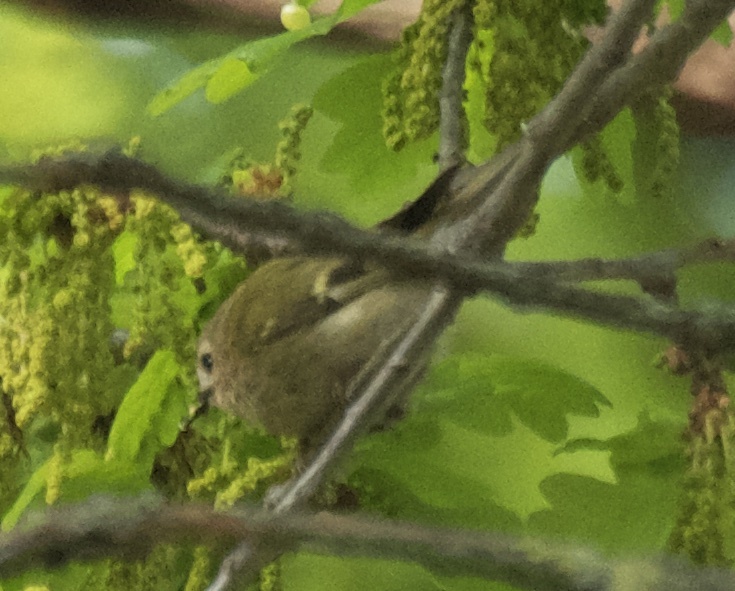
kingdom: Animalia
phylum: Chordata
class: Aves
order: Passeriformes
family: Regulidae
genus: Regulus
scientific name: Regulus regulus
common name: Goldcrest
